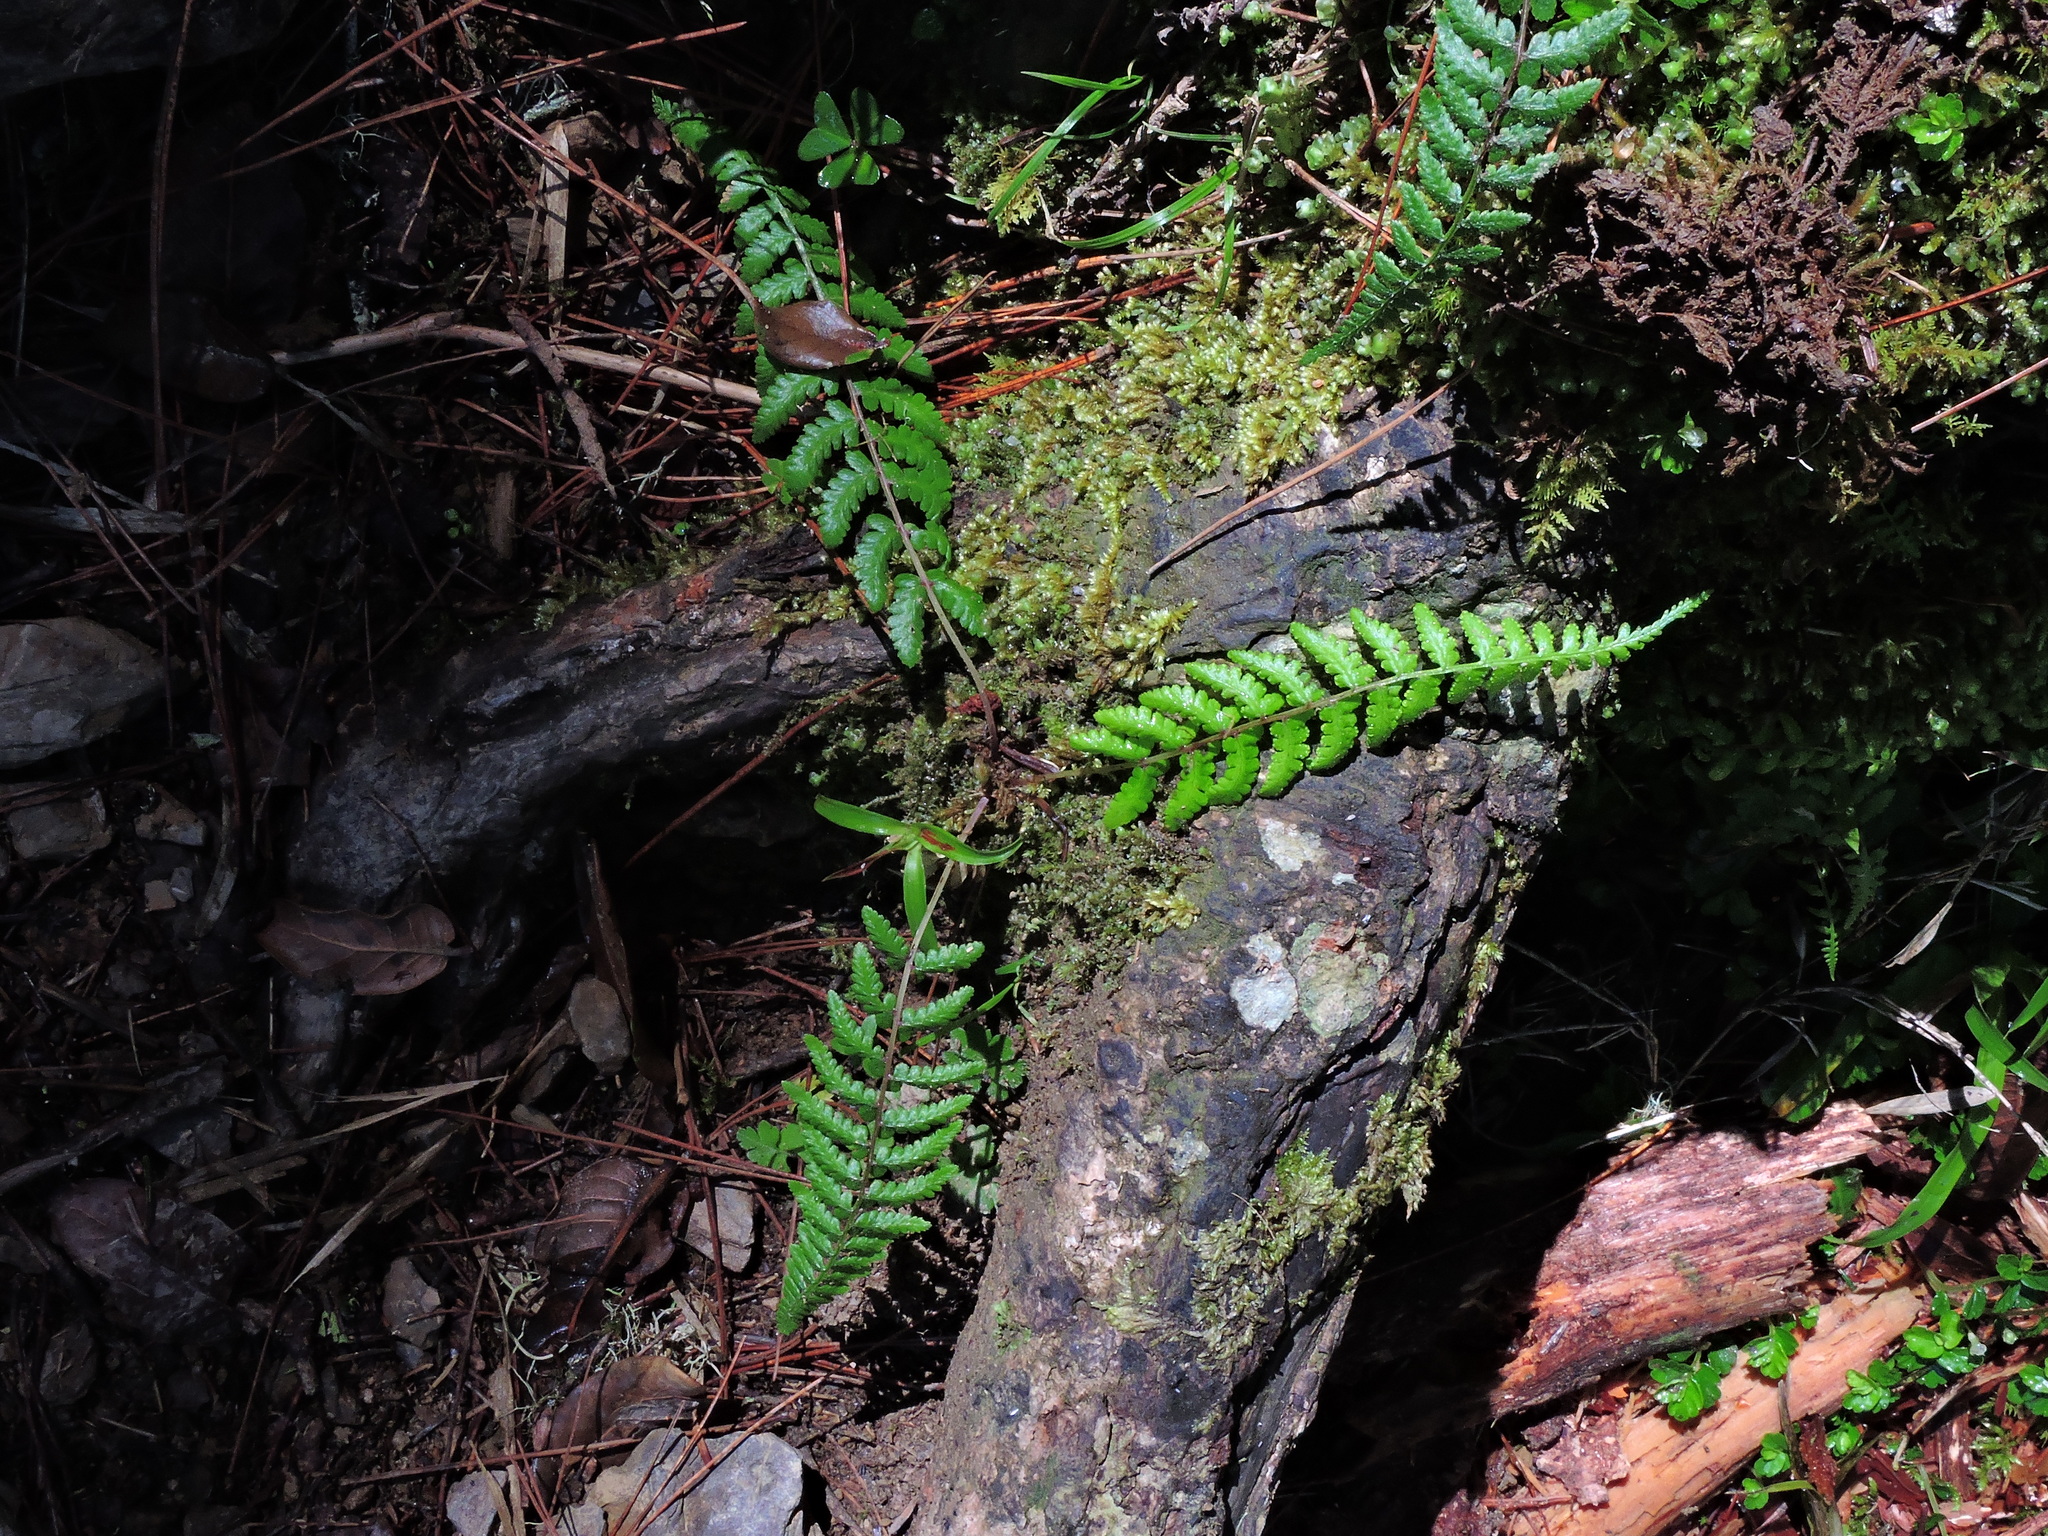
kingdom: Plantae
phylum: Tracheophyta
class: Polypodiopsida
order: Polypodiales
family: Athyriaceae
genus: Athyrium
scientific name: Athyrium oppositipennum
